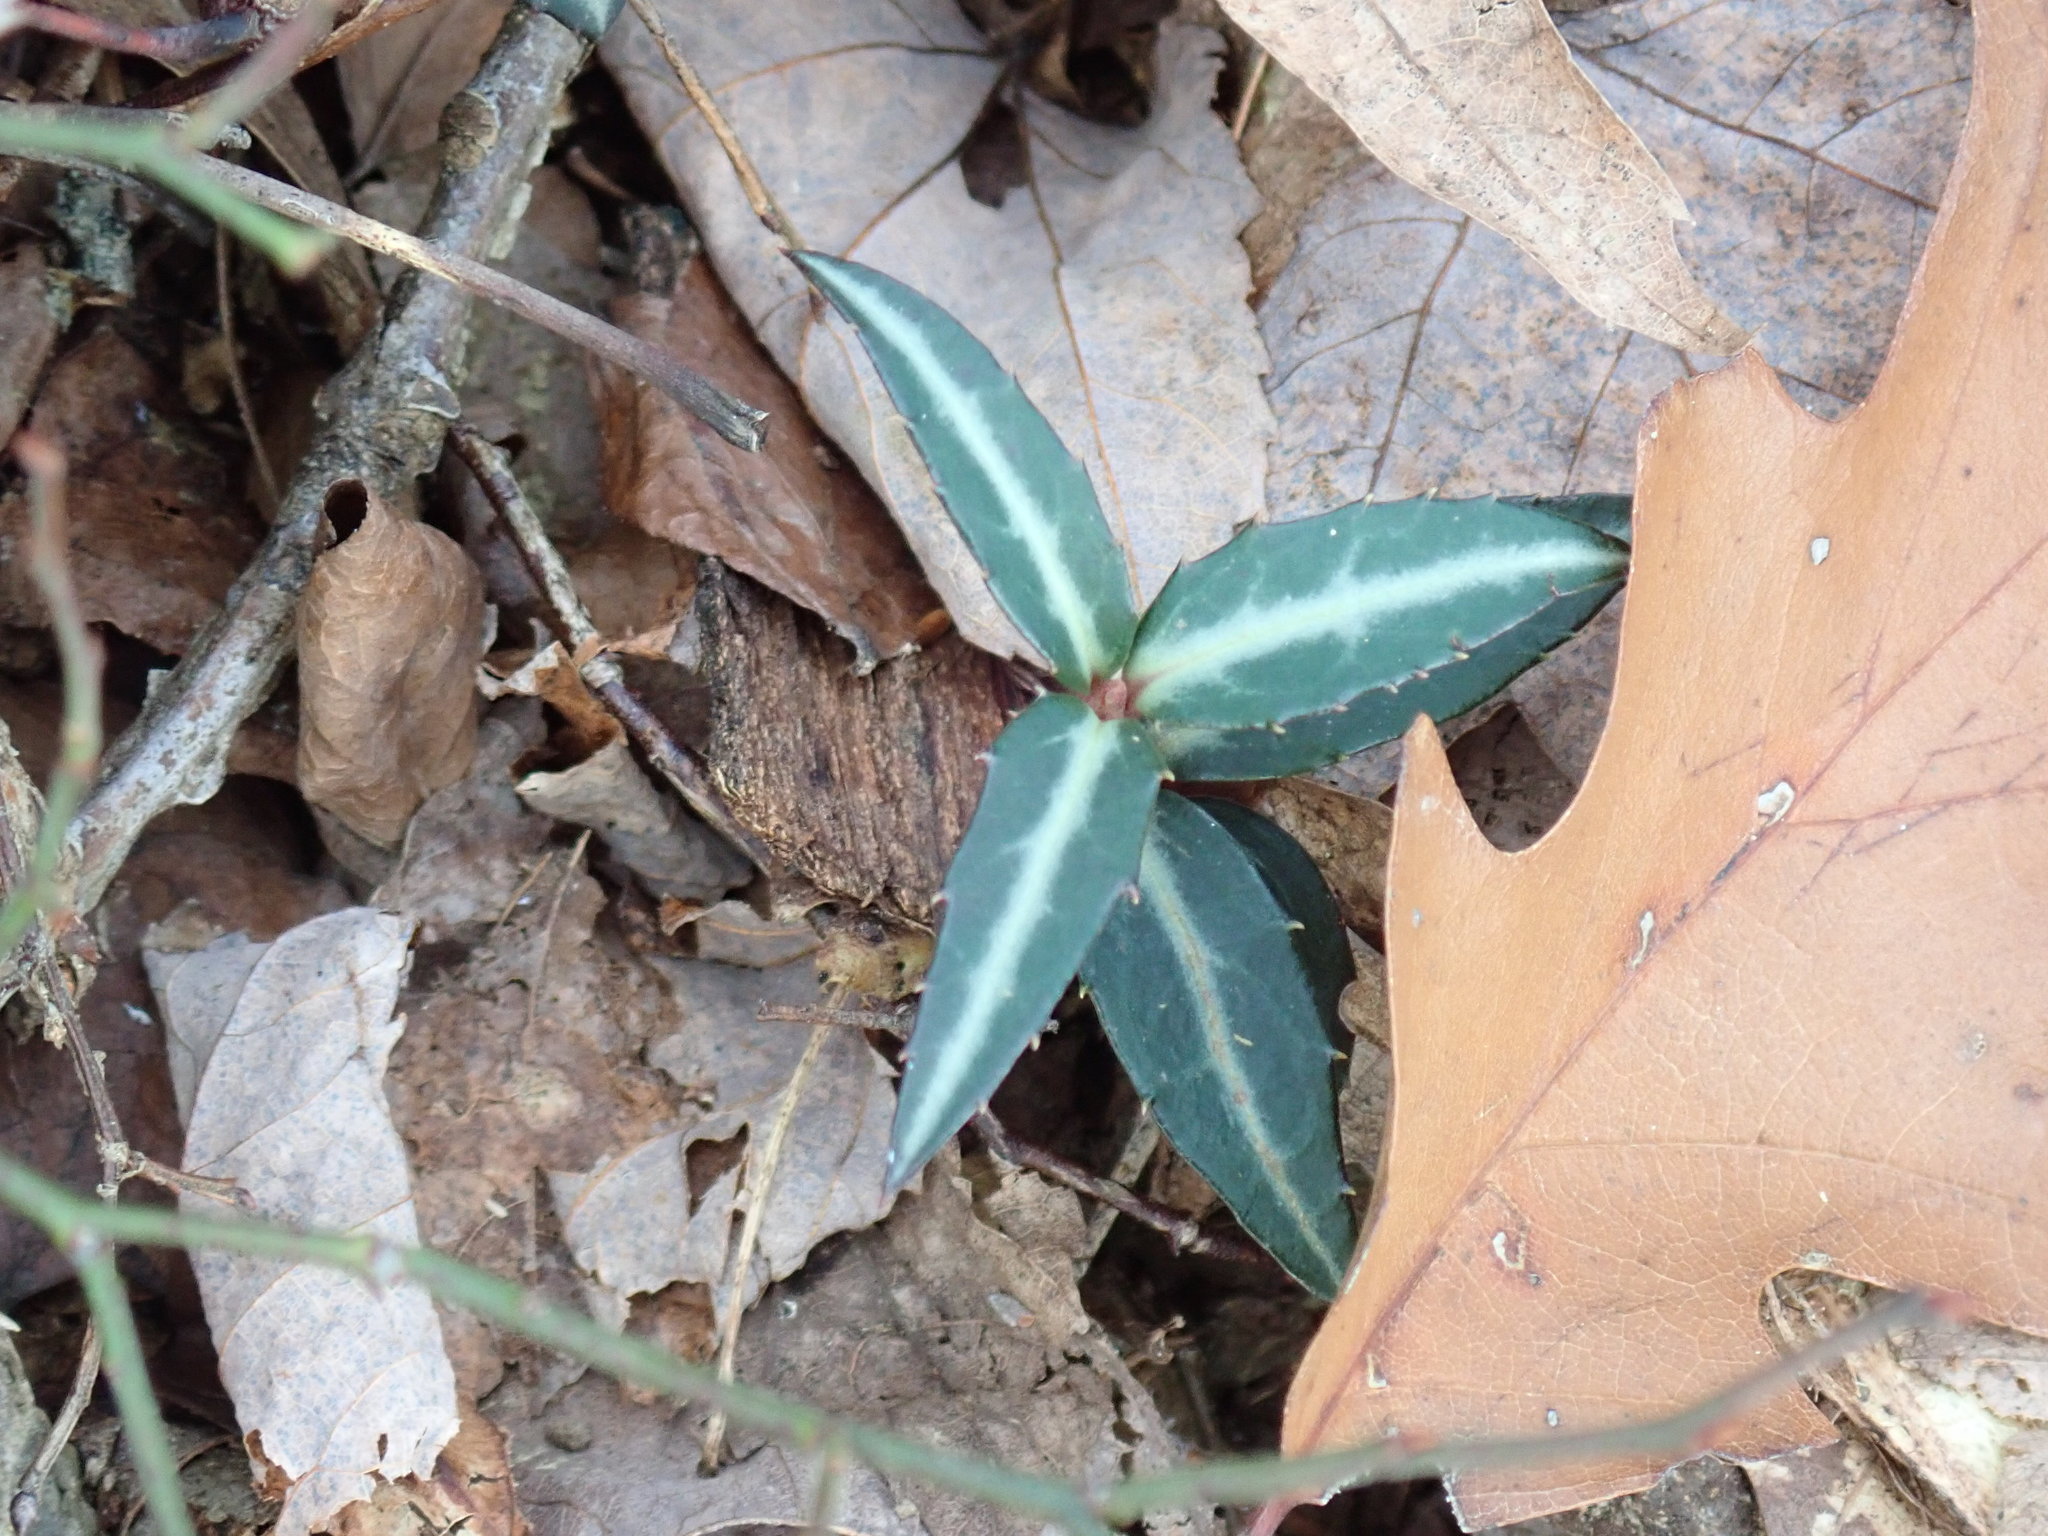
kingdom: Plantae
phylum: Tracheophyta
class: Magnoliopsida
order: Ericales
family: Ericaceae
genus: Chimaphila
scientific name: Chimaphila maculata
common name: Spotted pipsissewa
